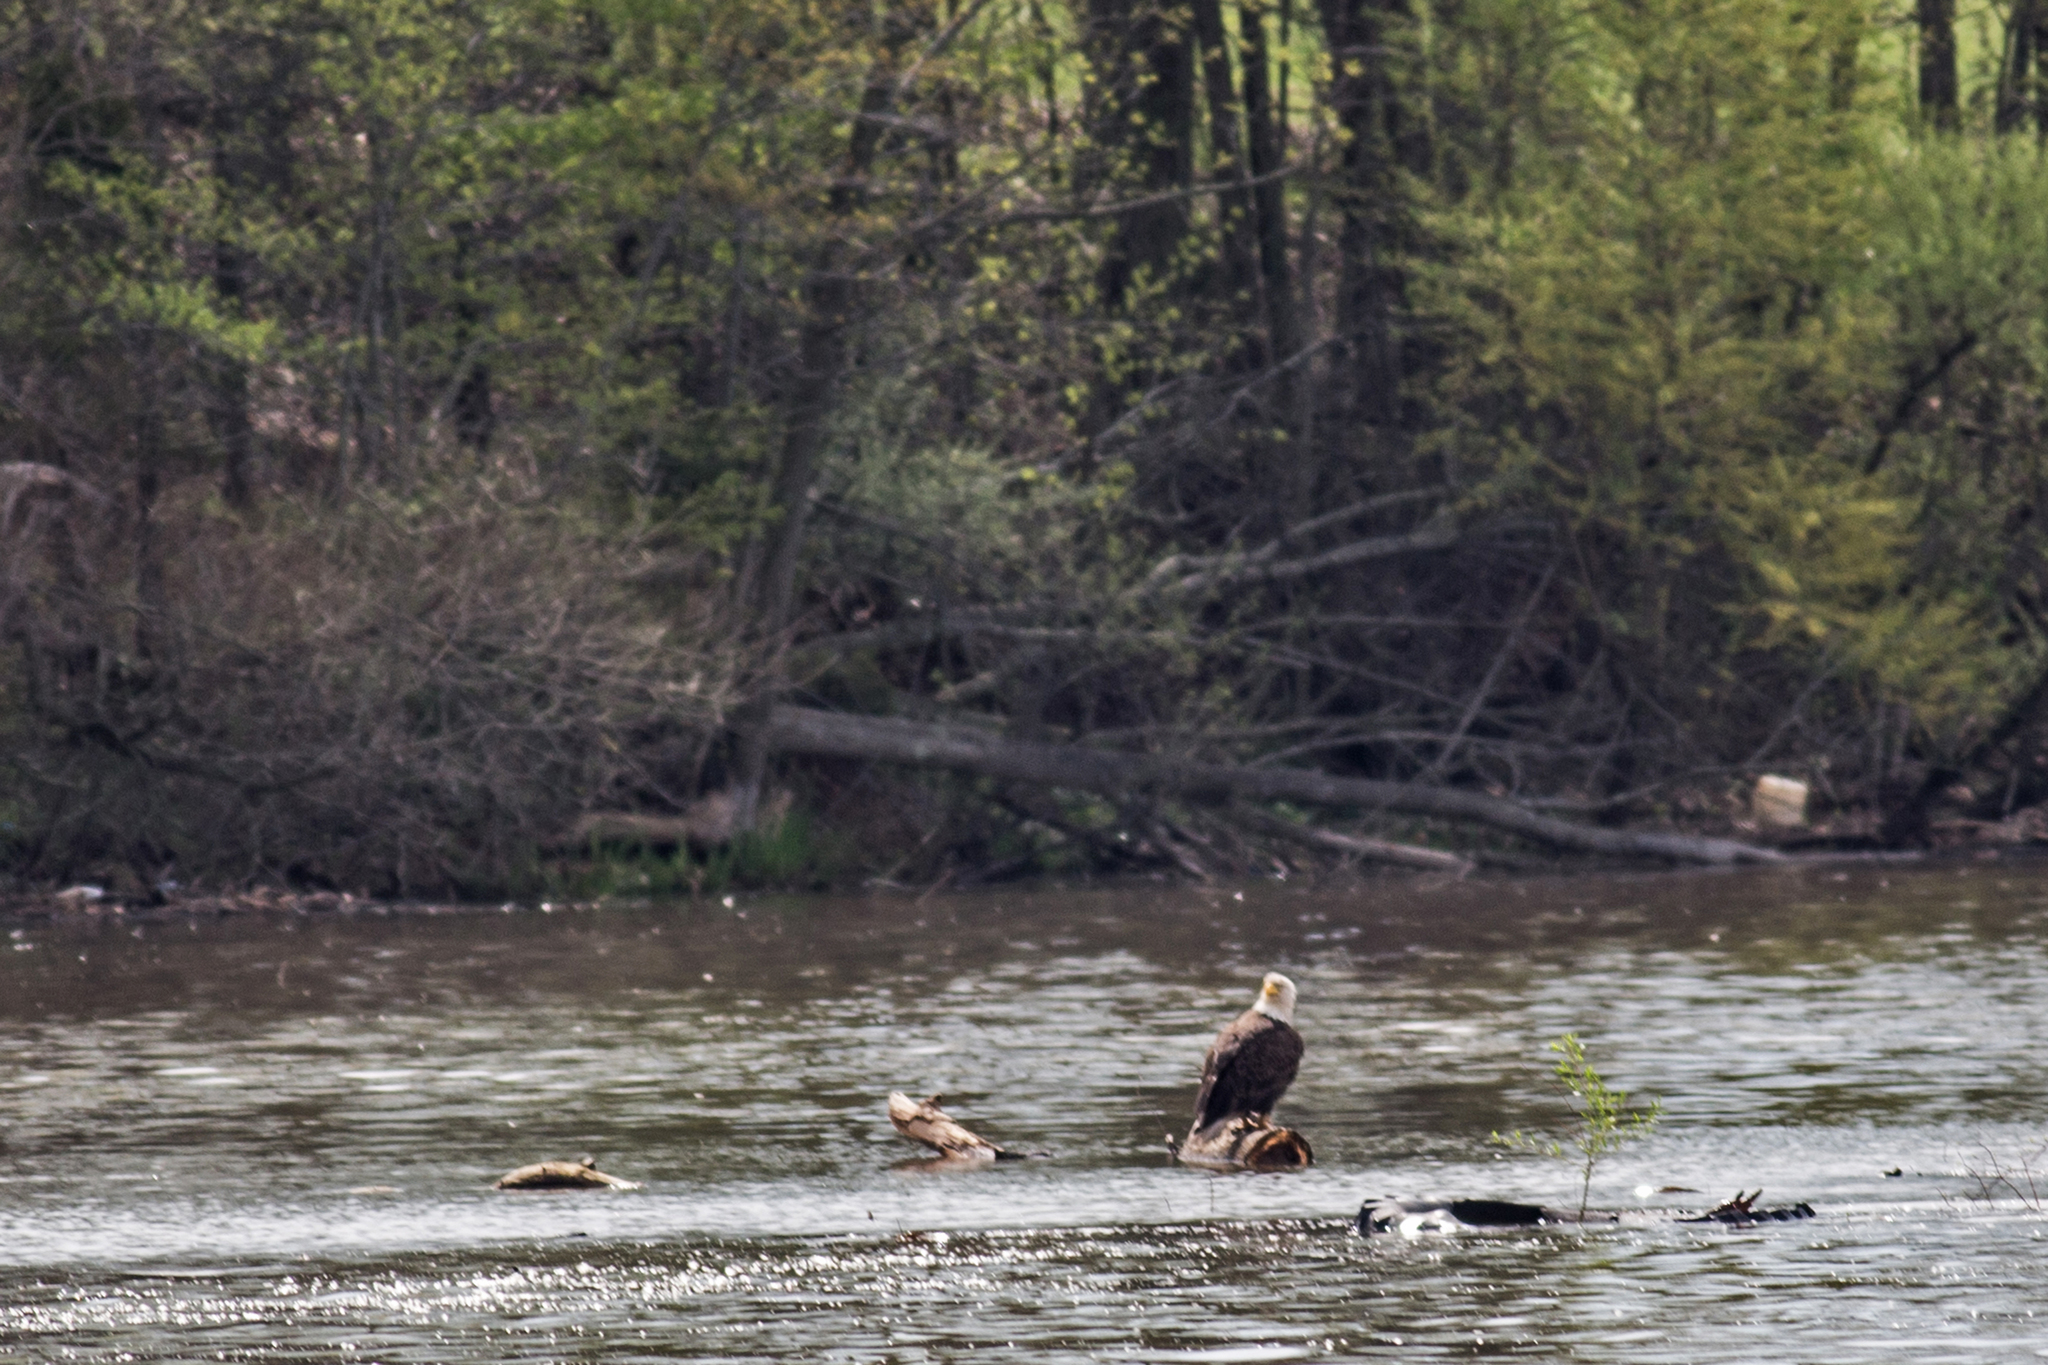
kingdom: Animalia
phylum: Chordata
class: Aves
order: Accipitriformes
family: Accipitridae
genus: Haliaeetus
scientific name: Haliaeetus leucocephalus
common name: Bald eagle
